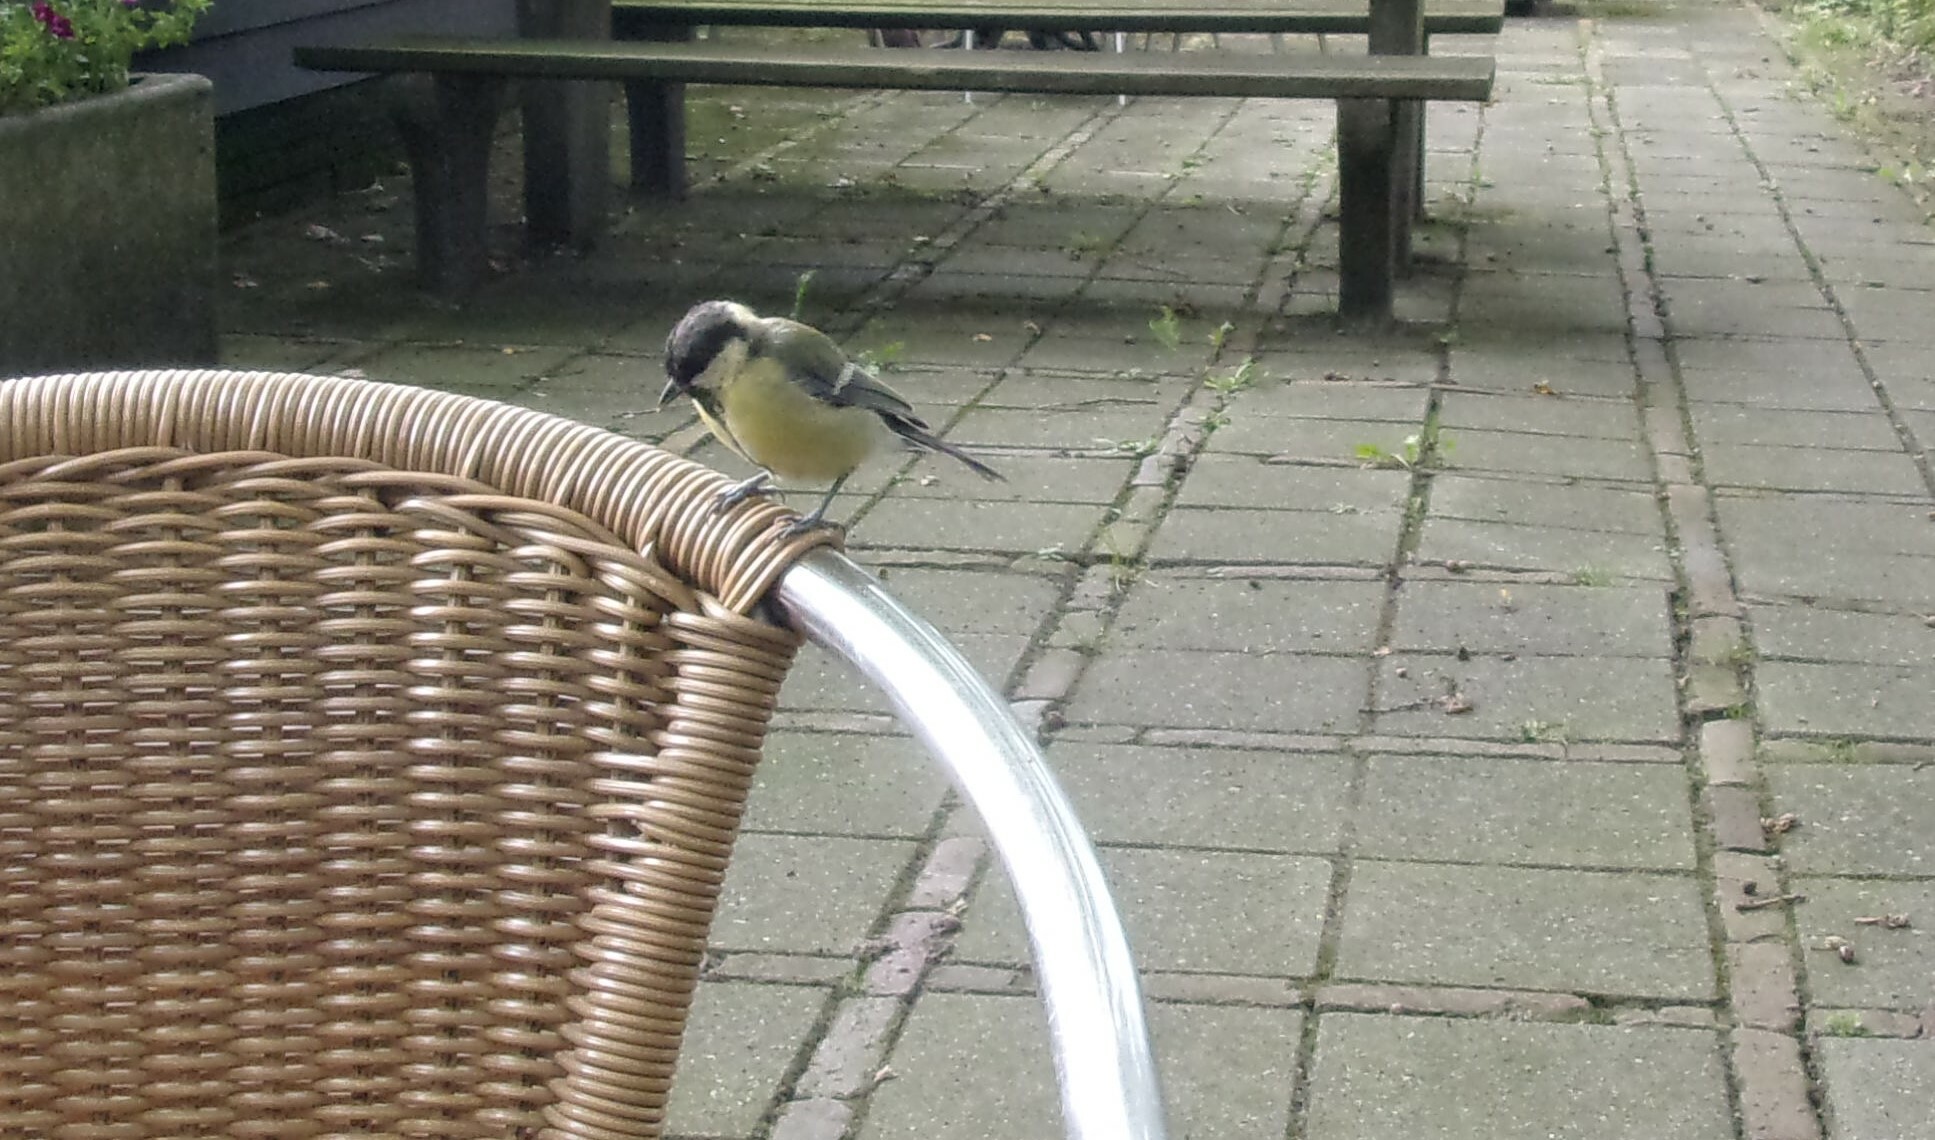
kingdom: Animalia
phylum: Chordata
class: Aves
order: Passeriformes
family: Paridae
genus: Parus
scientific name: Parus major
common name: Great tit
